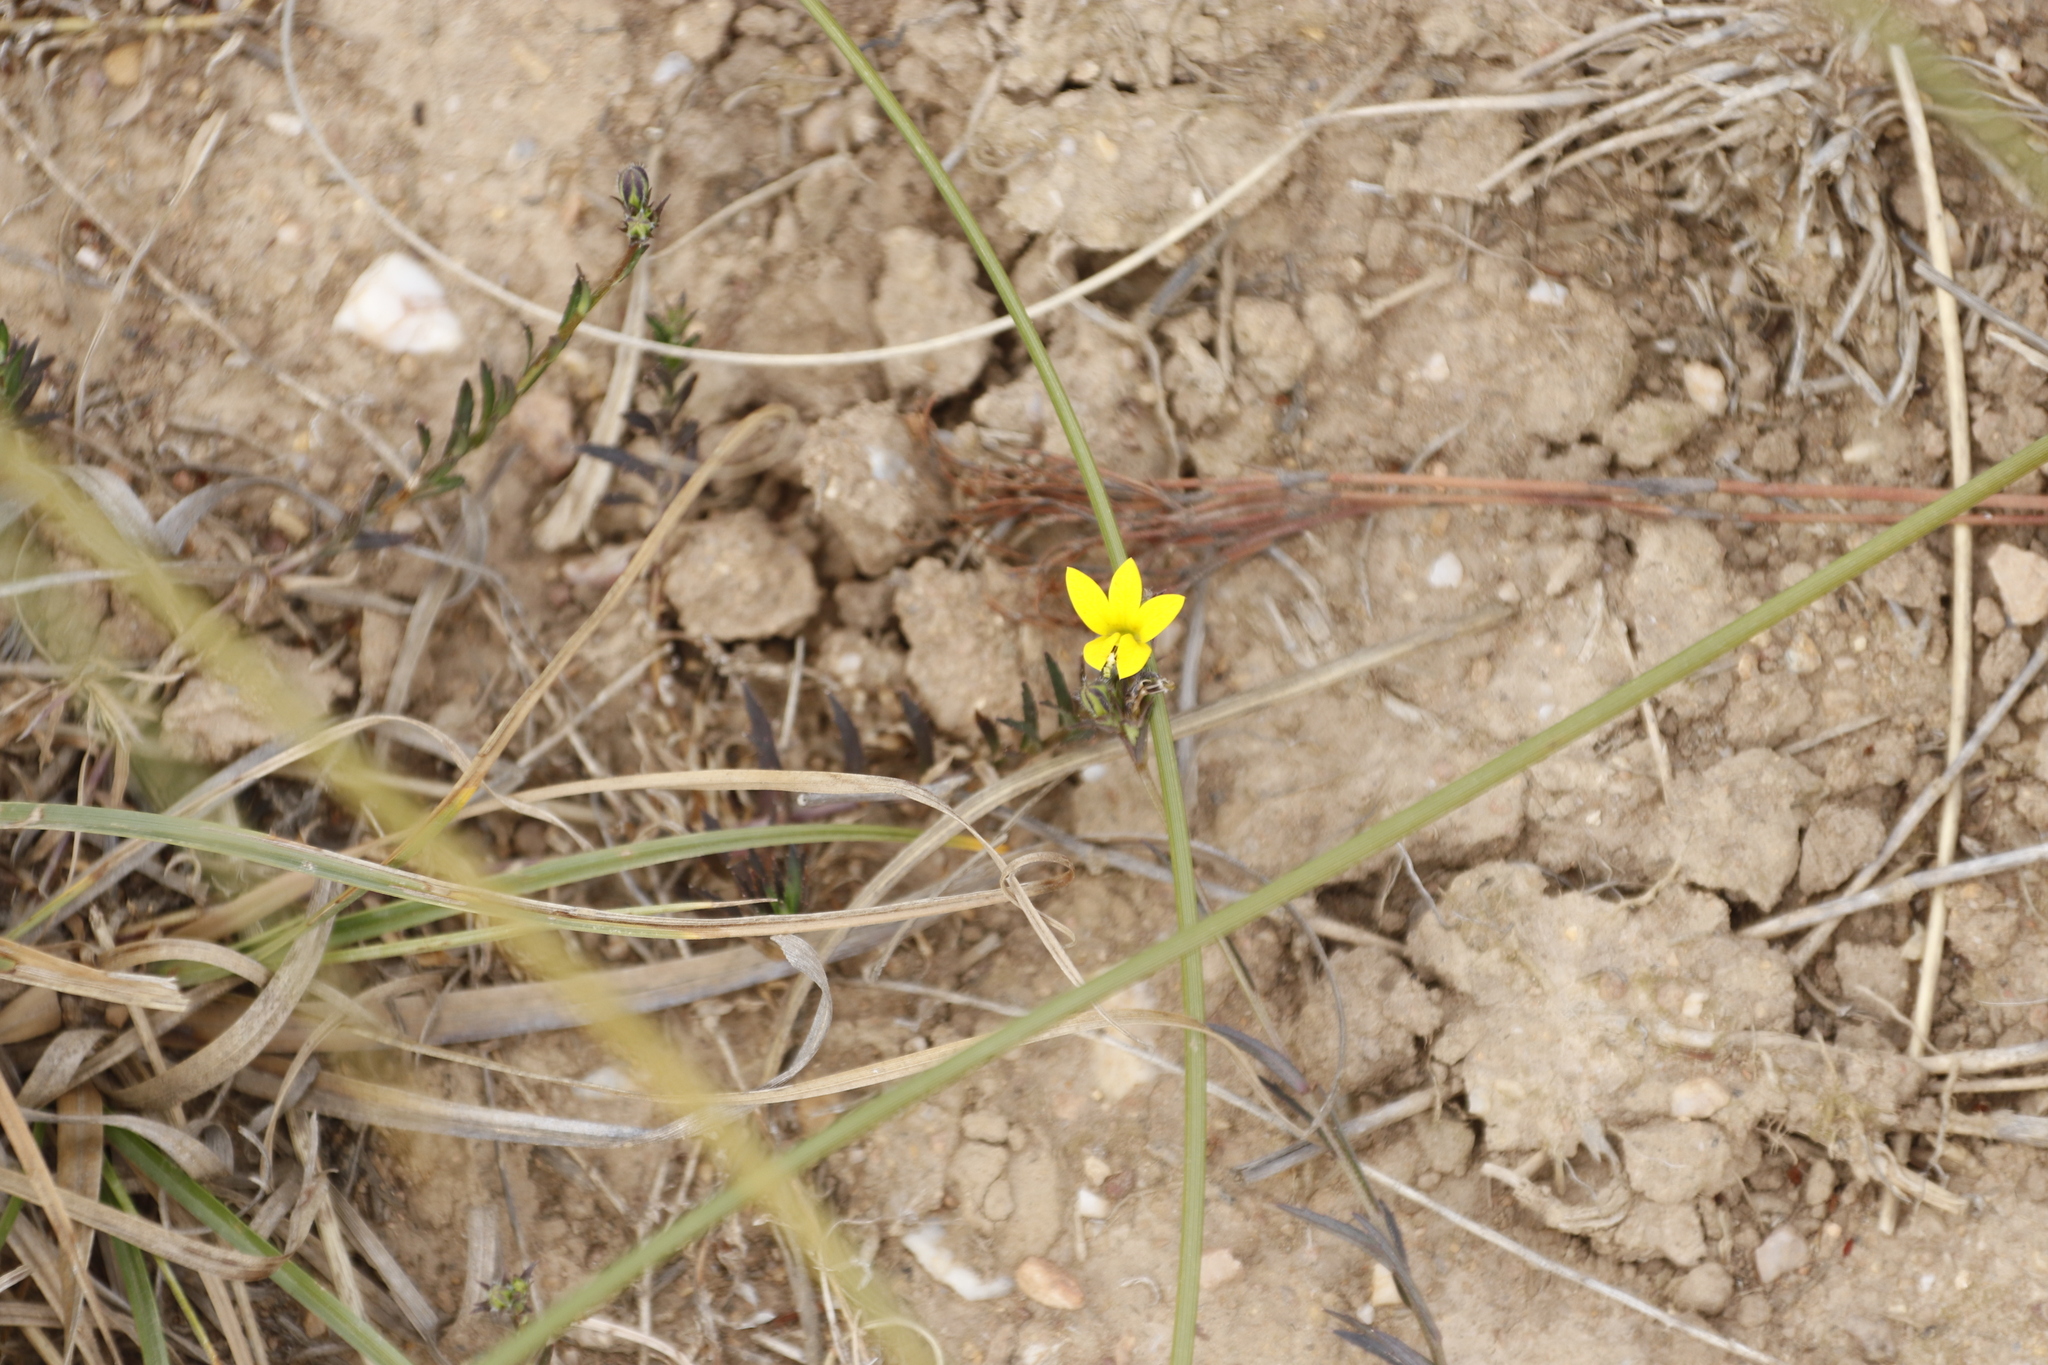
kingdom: Plantae
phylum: Tracheophyta
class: Magnoliopsida
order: Asterales
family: Campanulaceae
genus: Monopsis
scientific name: Monopsis lutea
